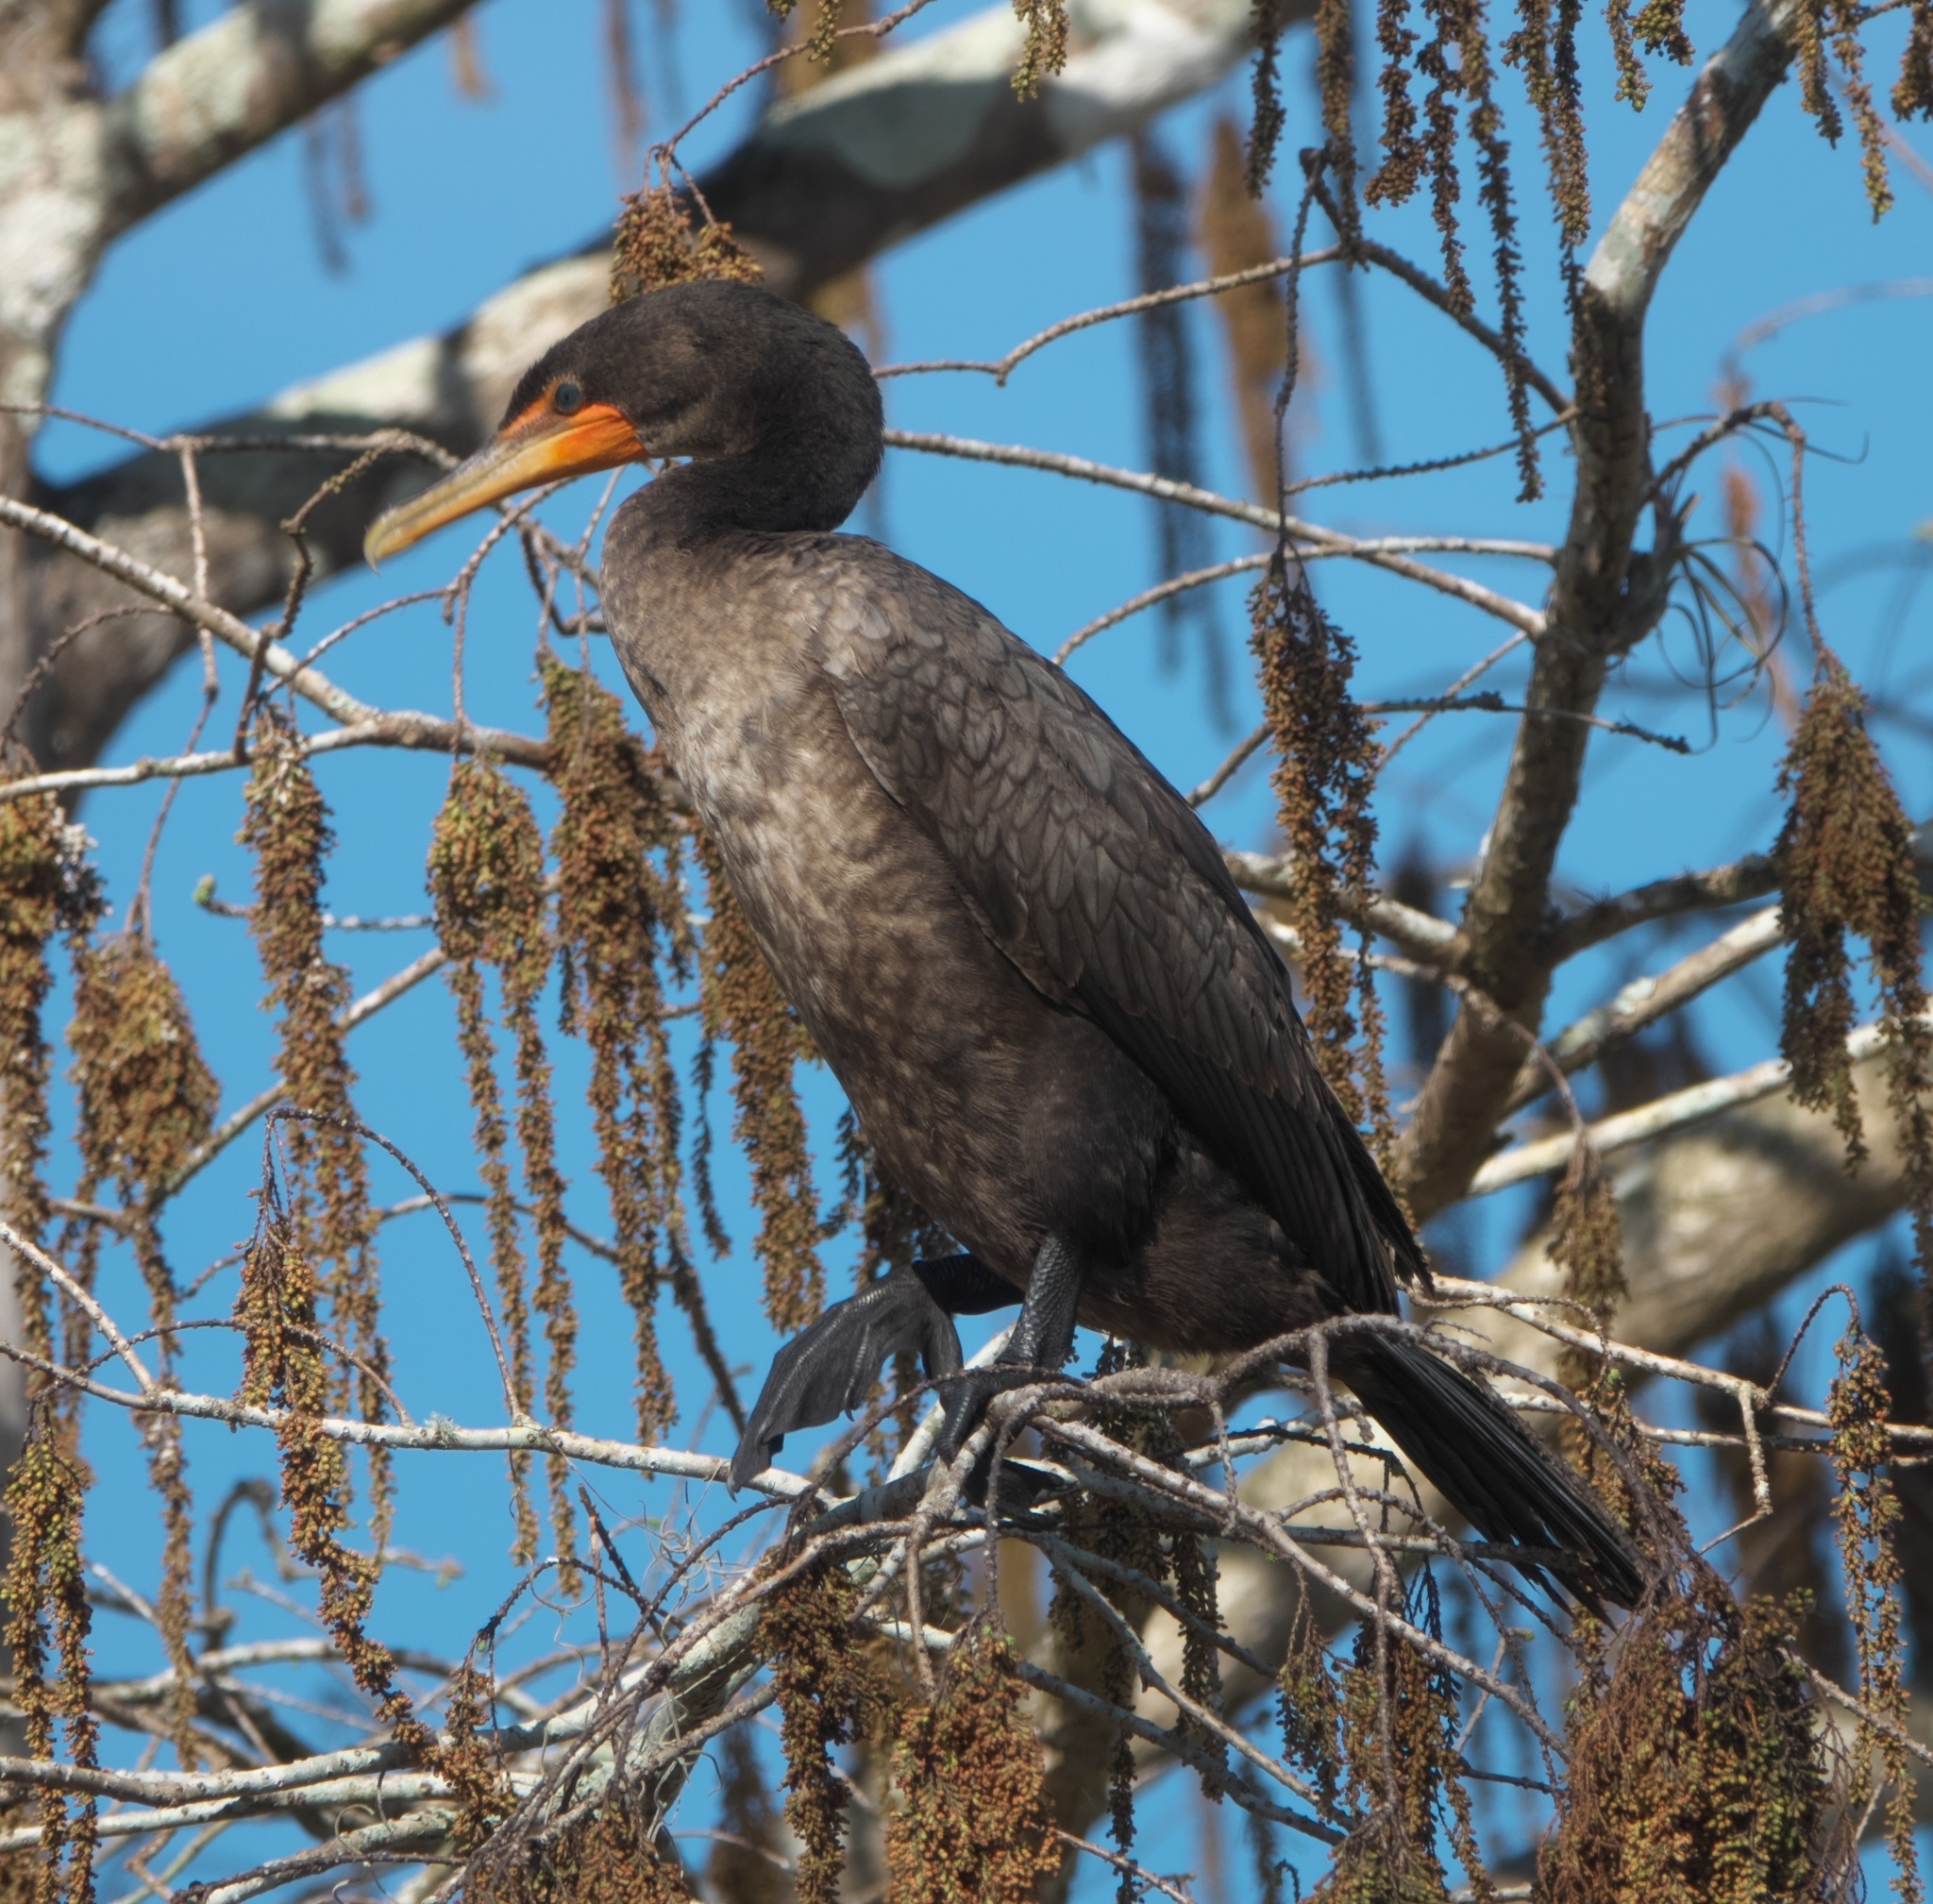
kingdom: Animalia
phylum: Chordata
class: Aves
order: Suliformes
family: Phalacrocoracidae
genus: Phalacrocorax
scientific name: Phalacrocorax auritus
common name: Double-crested cormorant
